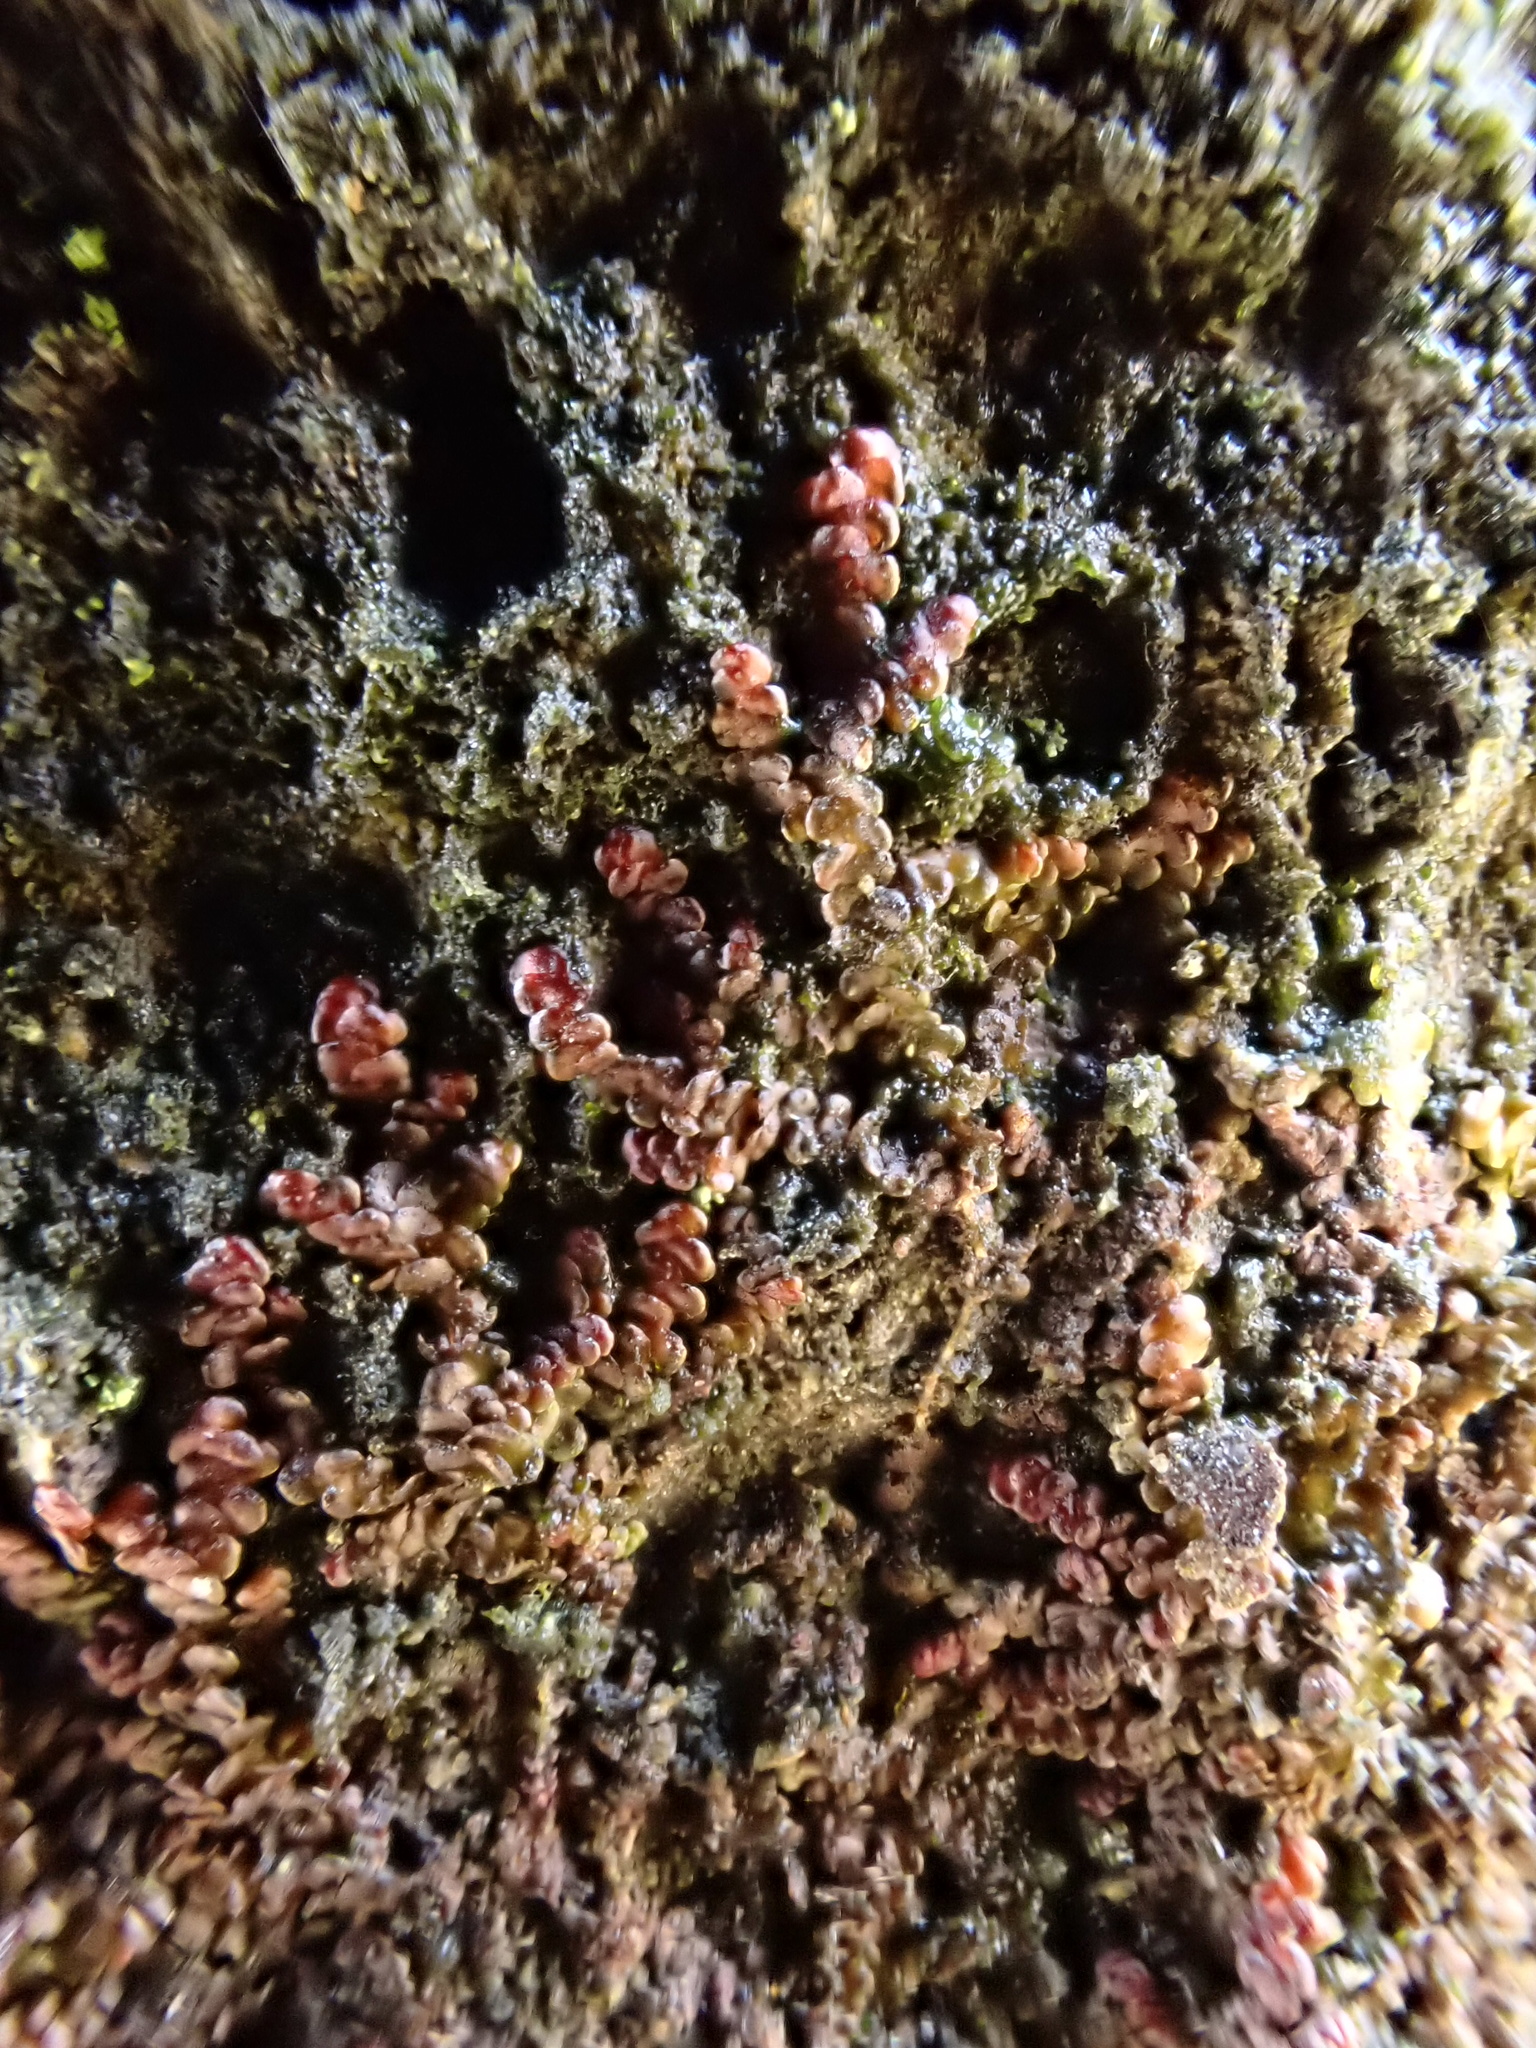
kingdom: Plantae
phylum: Marchantiophyta
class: Jungermanniopsida
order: Porellales
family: Frullaniaceae
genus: Frullania
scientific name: Frullania dilatata
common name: Dilated scalewort
